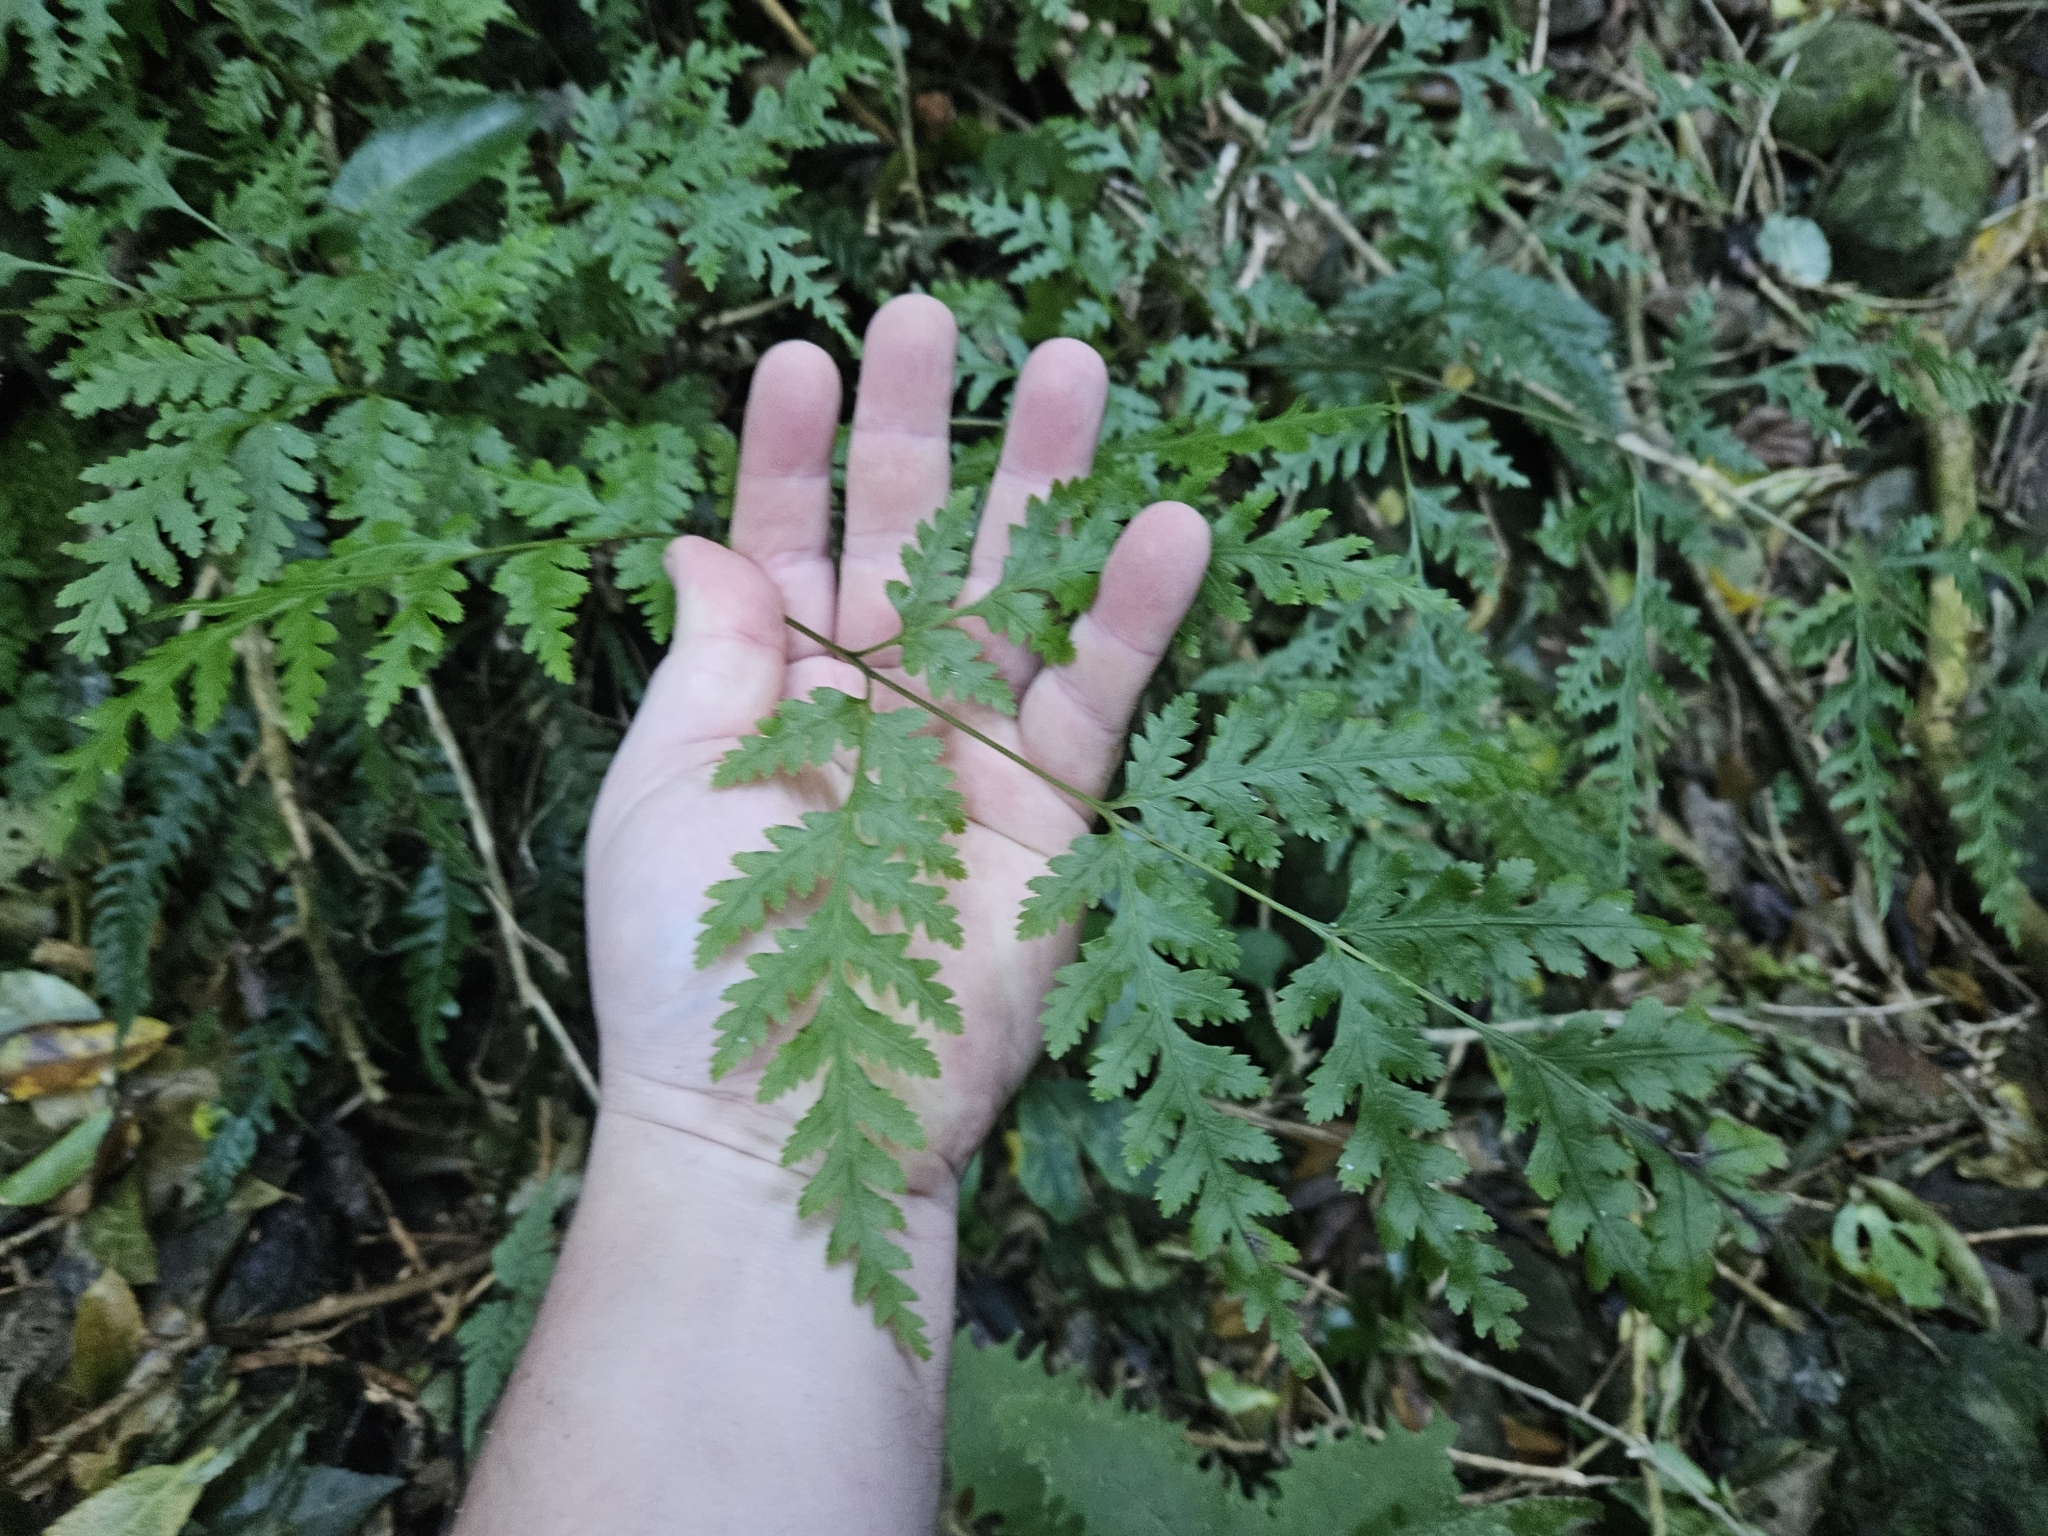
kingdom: Plantae
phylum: Tracheophyta
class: Polypodiopsida
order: Polypodiales
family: Pteridaceae
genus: Pteris
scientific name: Pteris macilenta
